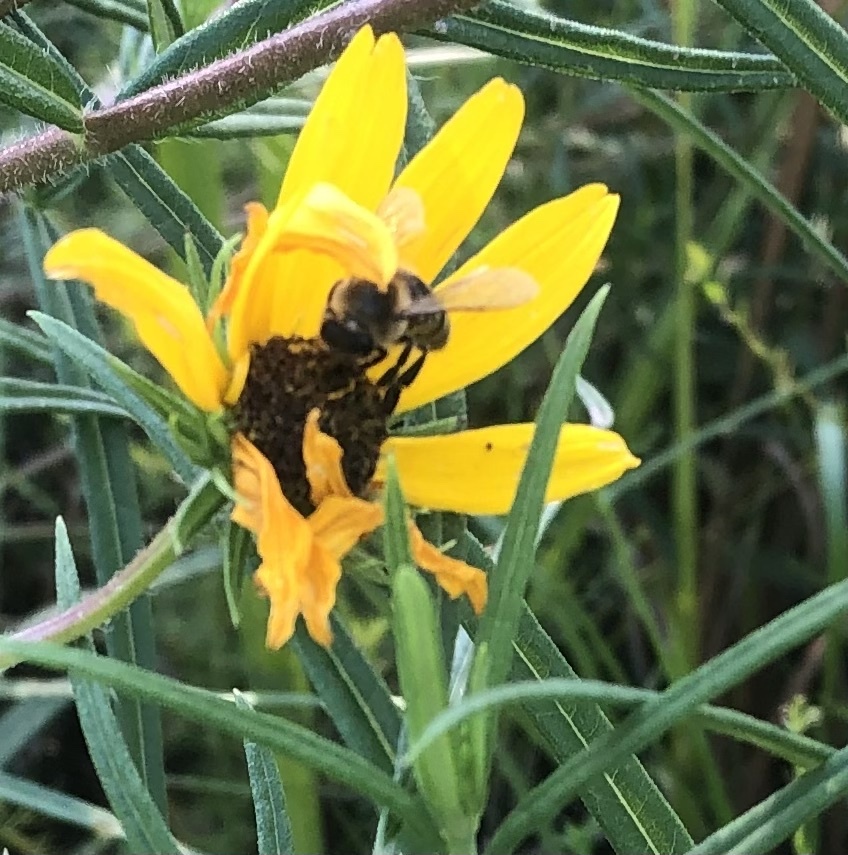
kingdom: Animalia
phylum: Arthropoda
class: Insecta
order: Hymenoptera
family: Apidae
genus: Apis
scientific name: Apis mellifera
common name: Honey bee
